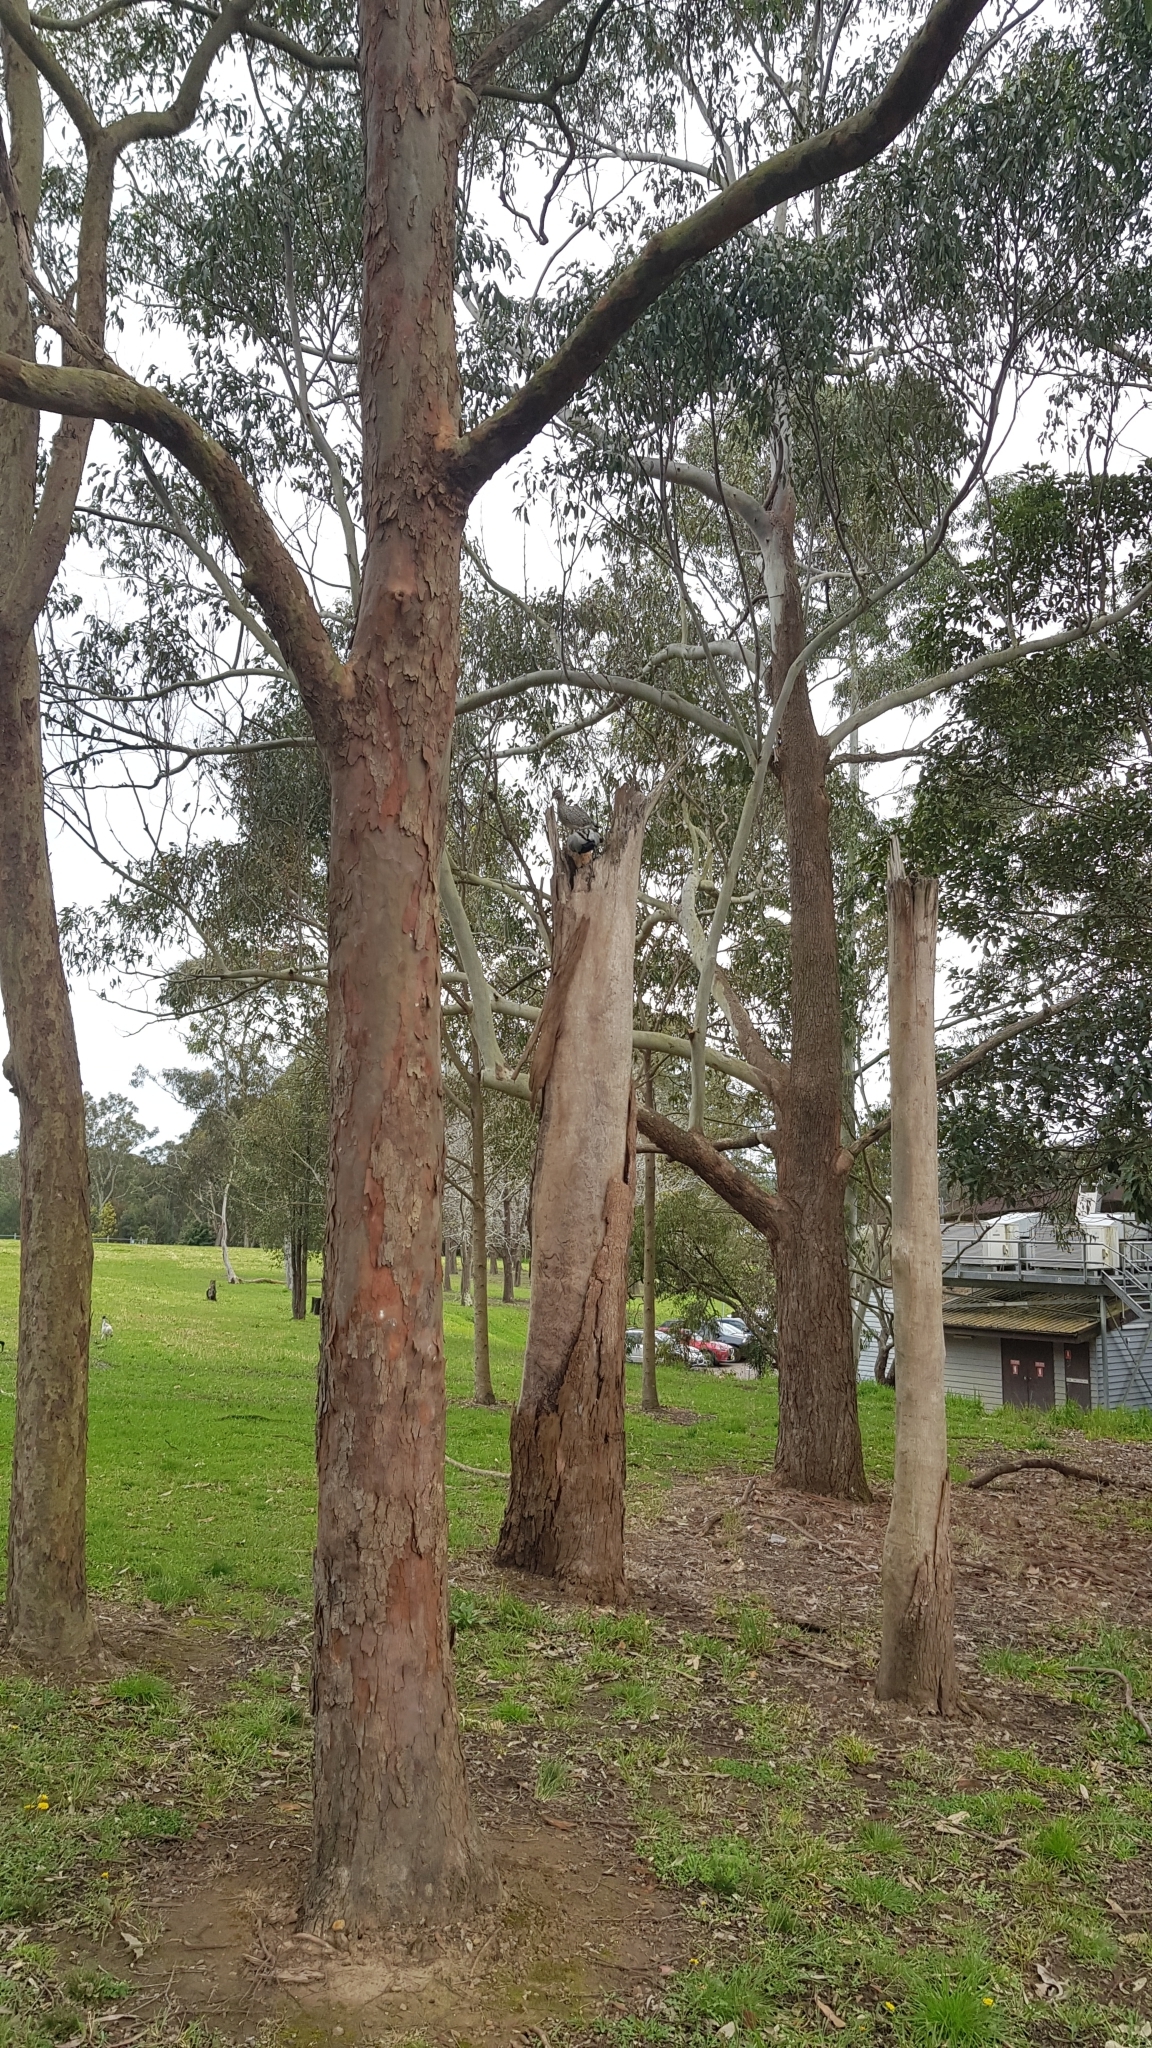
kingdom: Animalia
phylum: Chordata
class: Aves
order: Anseriformes
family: Anatidae
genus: Chenonetta
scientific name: Chenonetta jubata
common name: Maned duck
